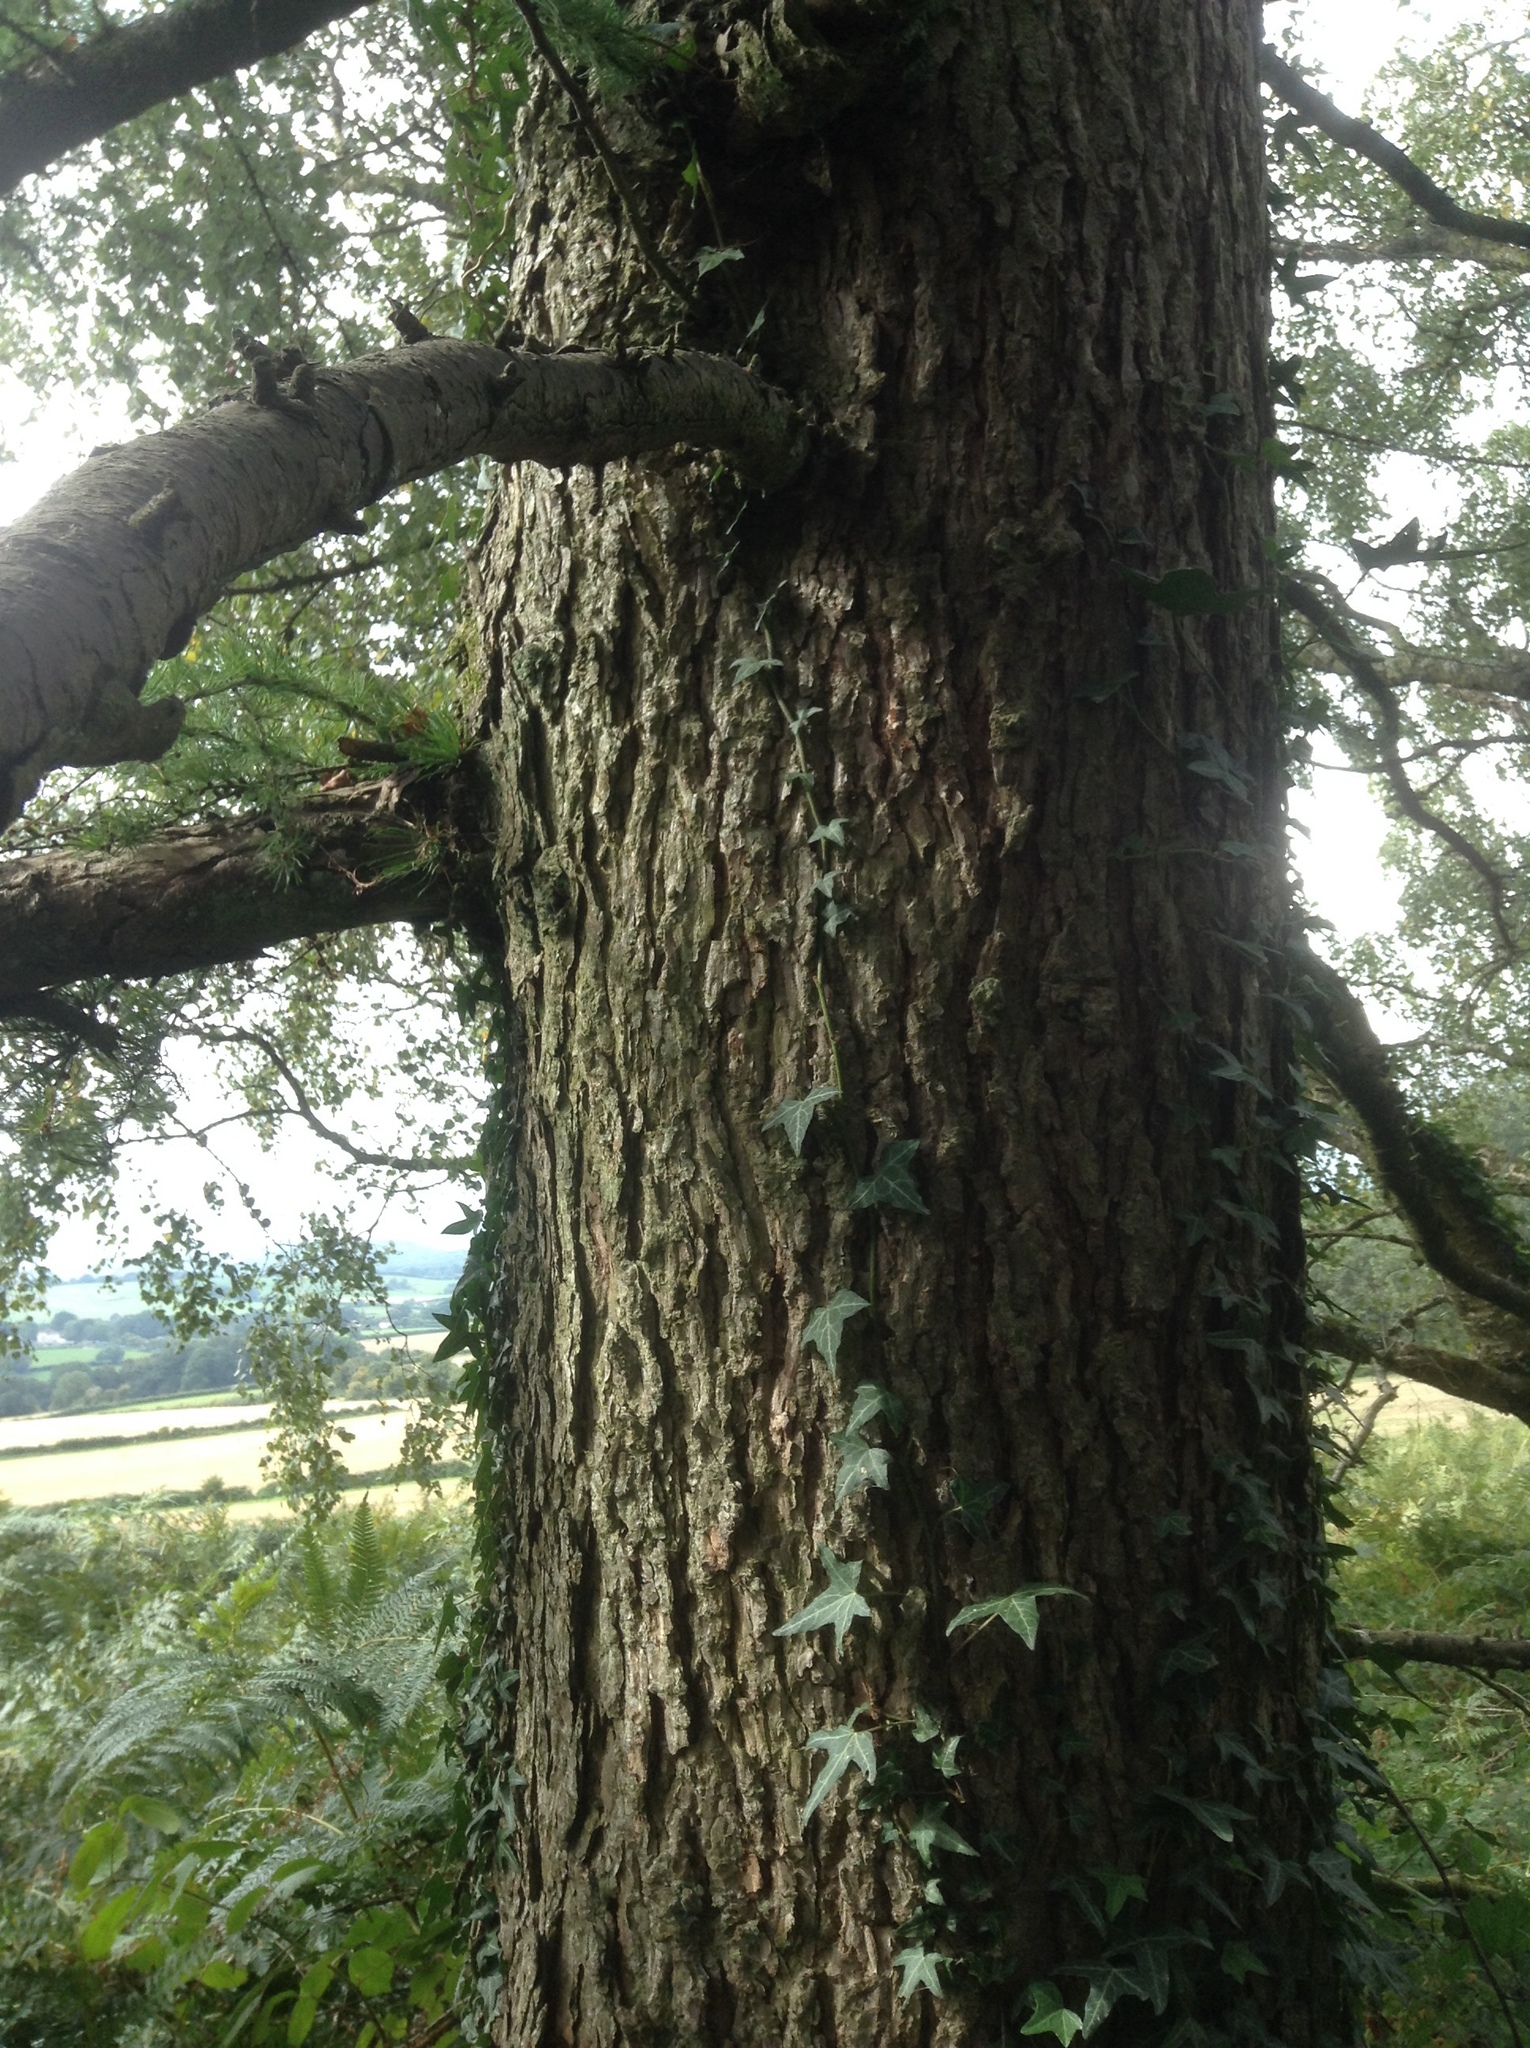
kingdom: Plantae
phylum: Tracheophyta
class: Pinopsida
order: Pinales
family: Pinaceae
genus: Larix
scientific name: Larix decidua
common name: European larch
